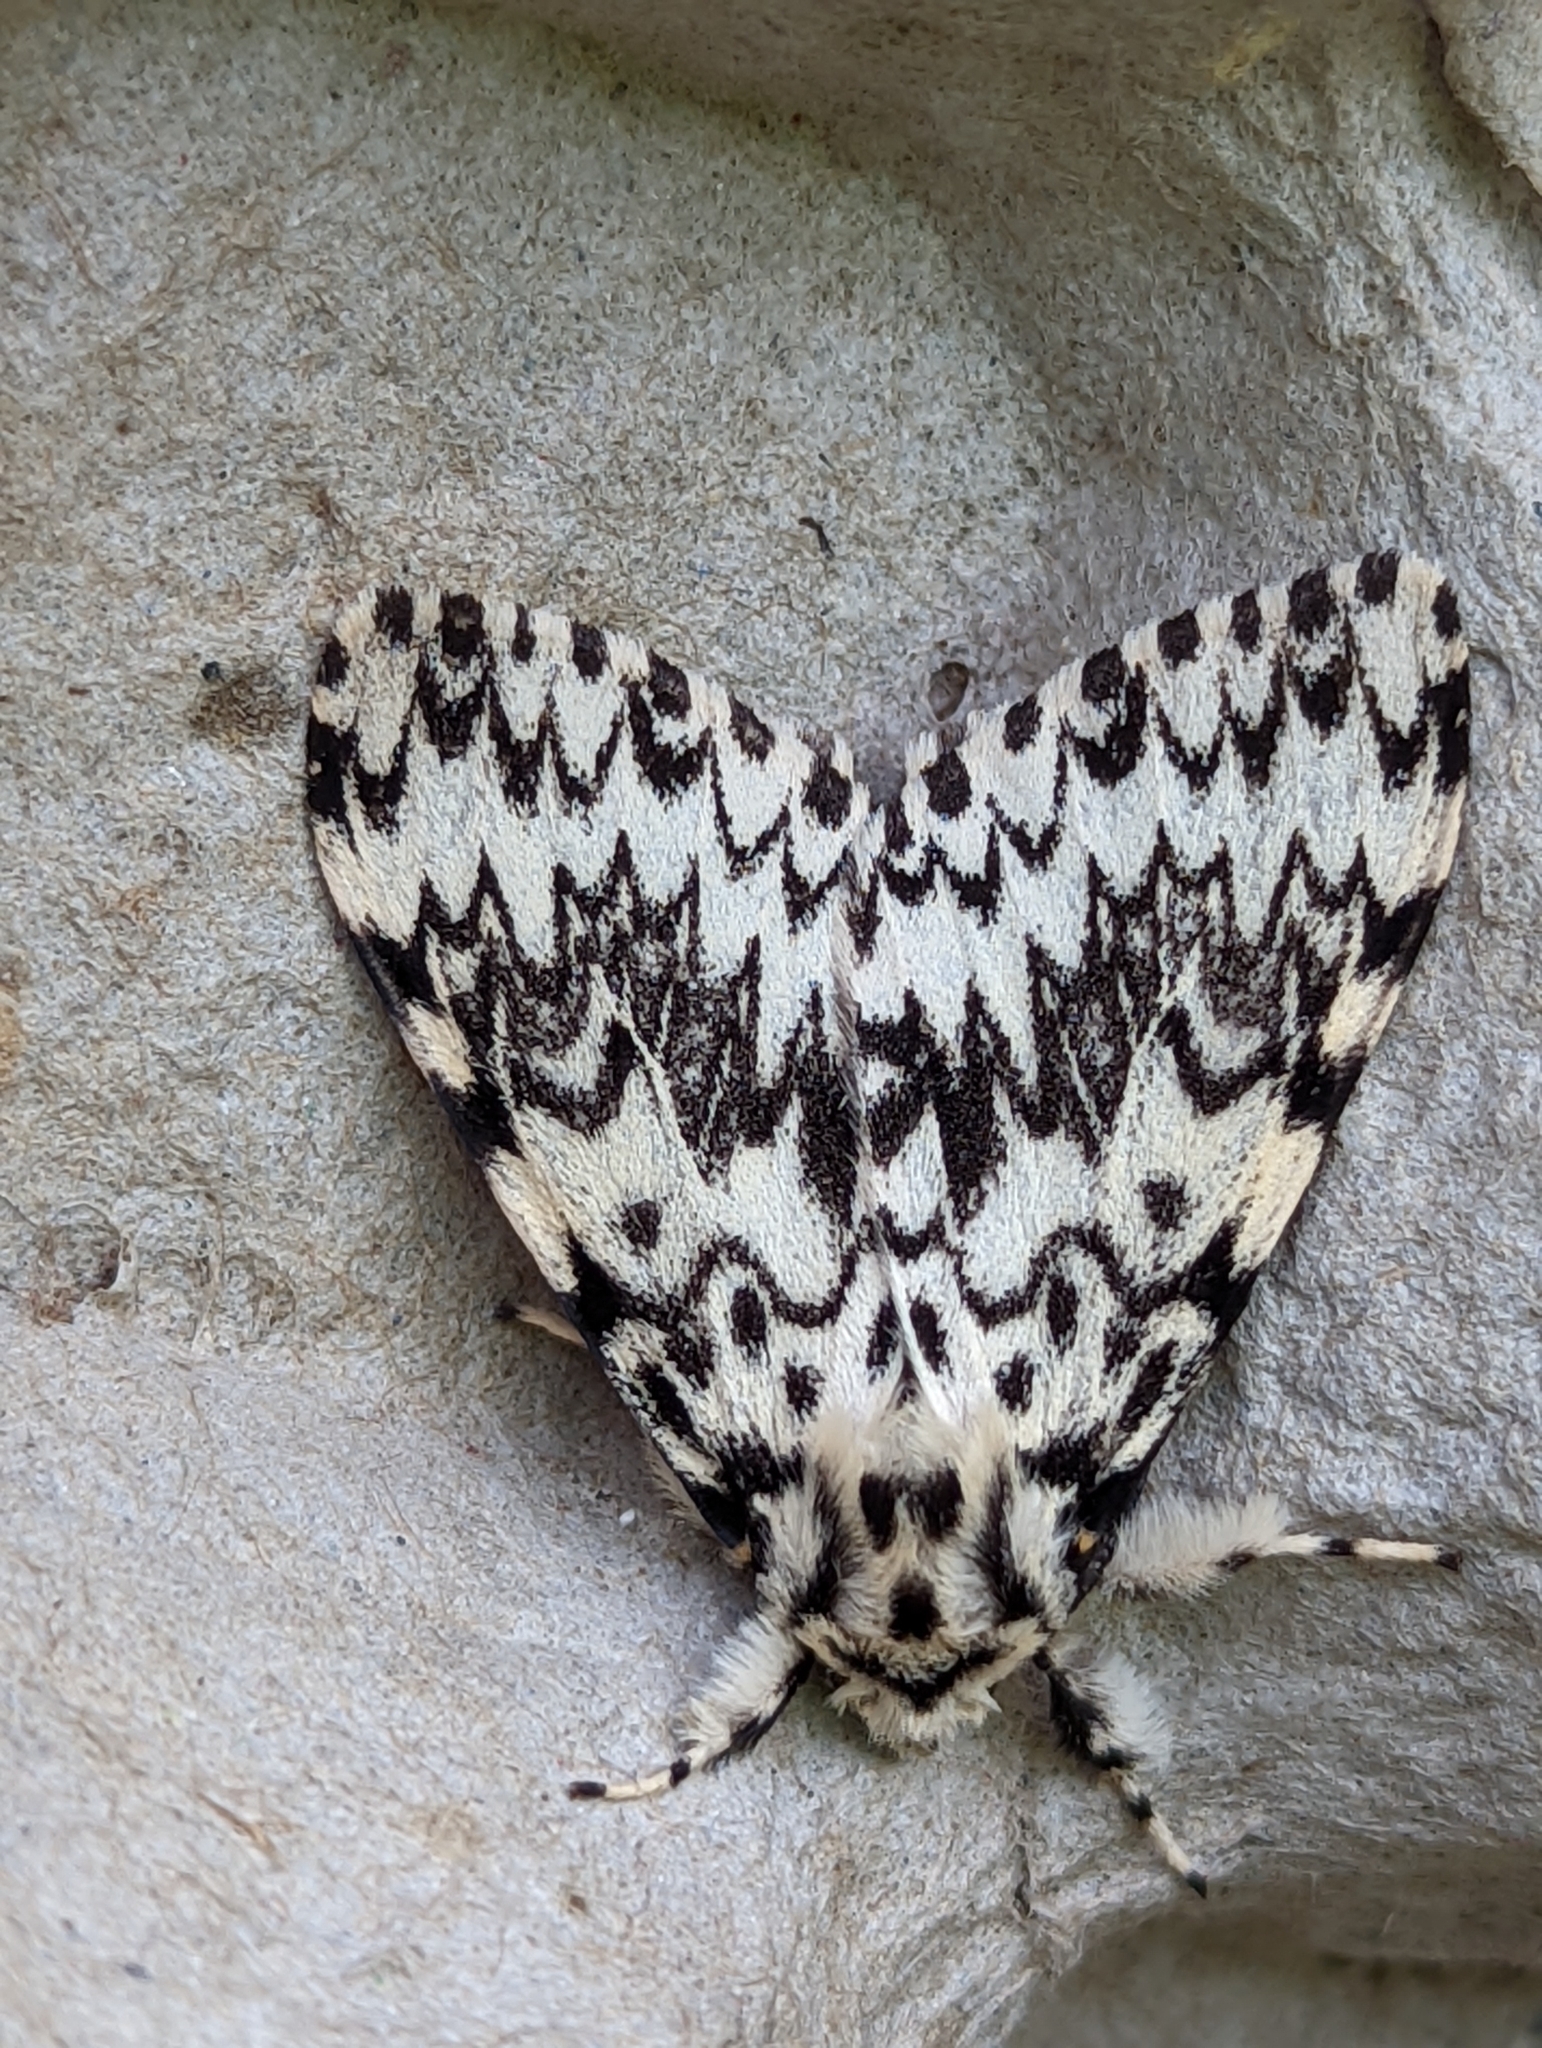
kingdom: Animalia
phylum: Arthropoda
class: Insecta
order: Lepidoptera
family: Erebidae
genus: Lymantria
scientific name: Lymantria monacha
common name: Black arches
